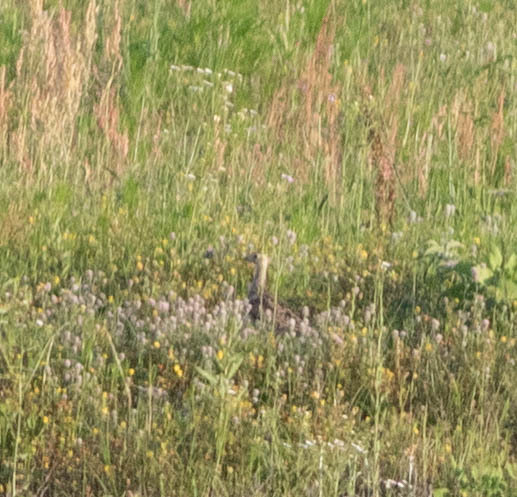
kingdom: Animalia
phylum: Chordata
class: Aves
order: Charadriiformes
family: Scolopacidae
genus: Bartramia
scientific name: Bartramia longicauda
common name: Upland sandpiper
